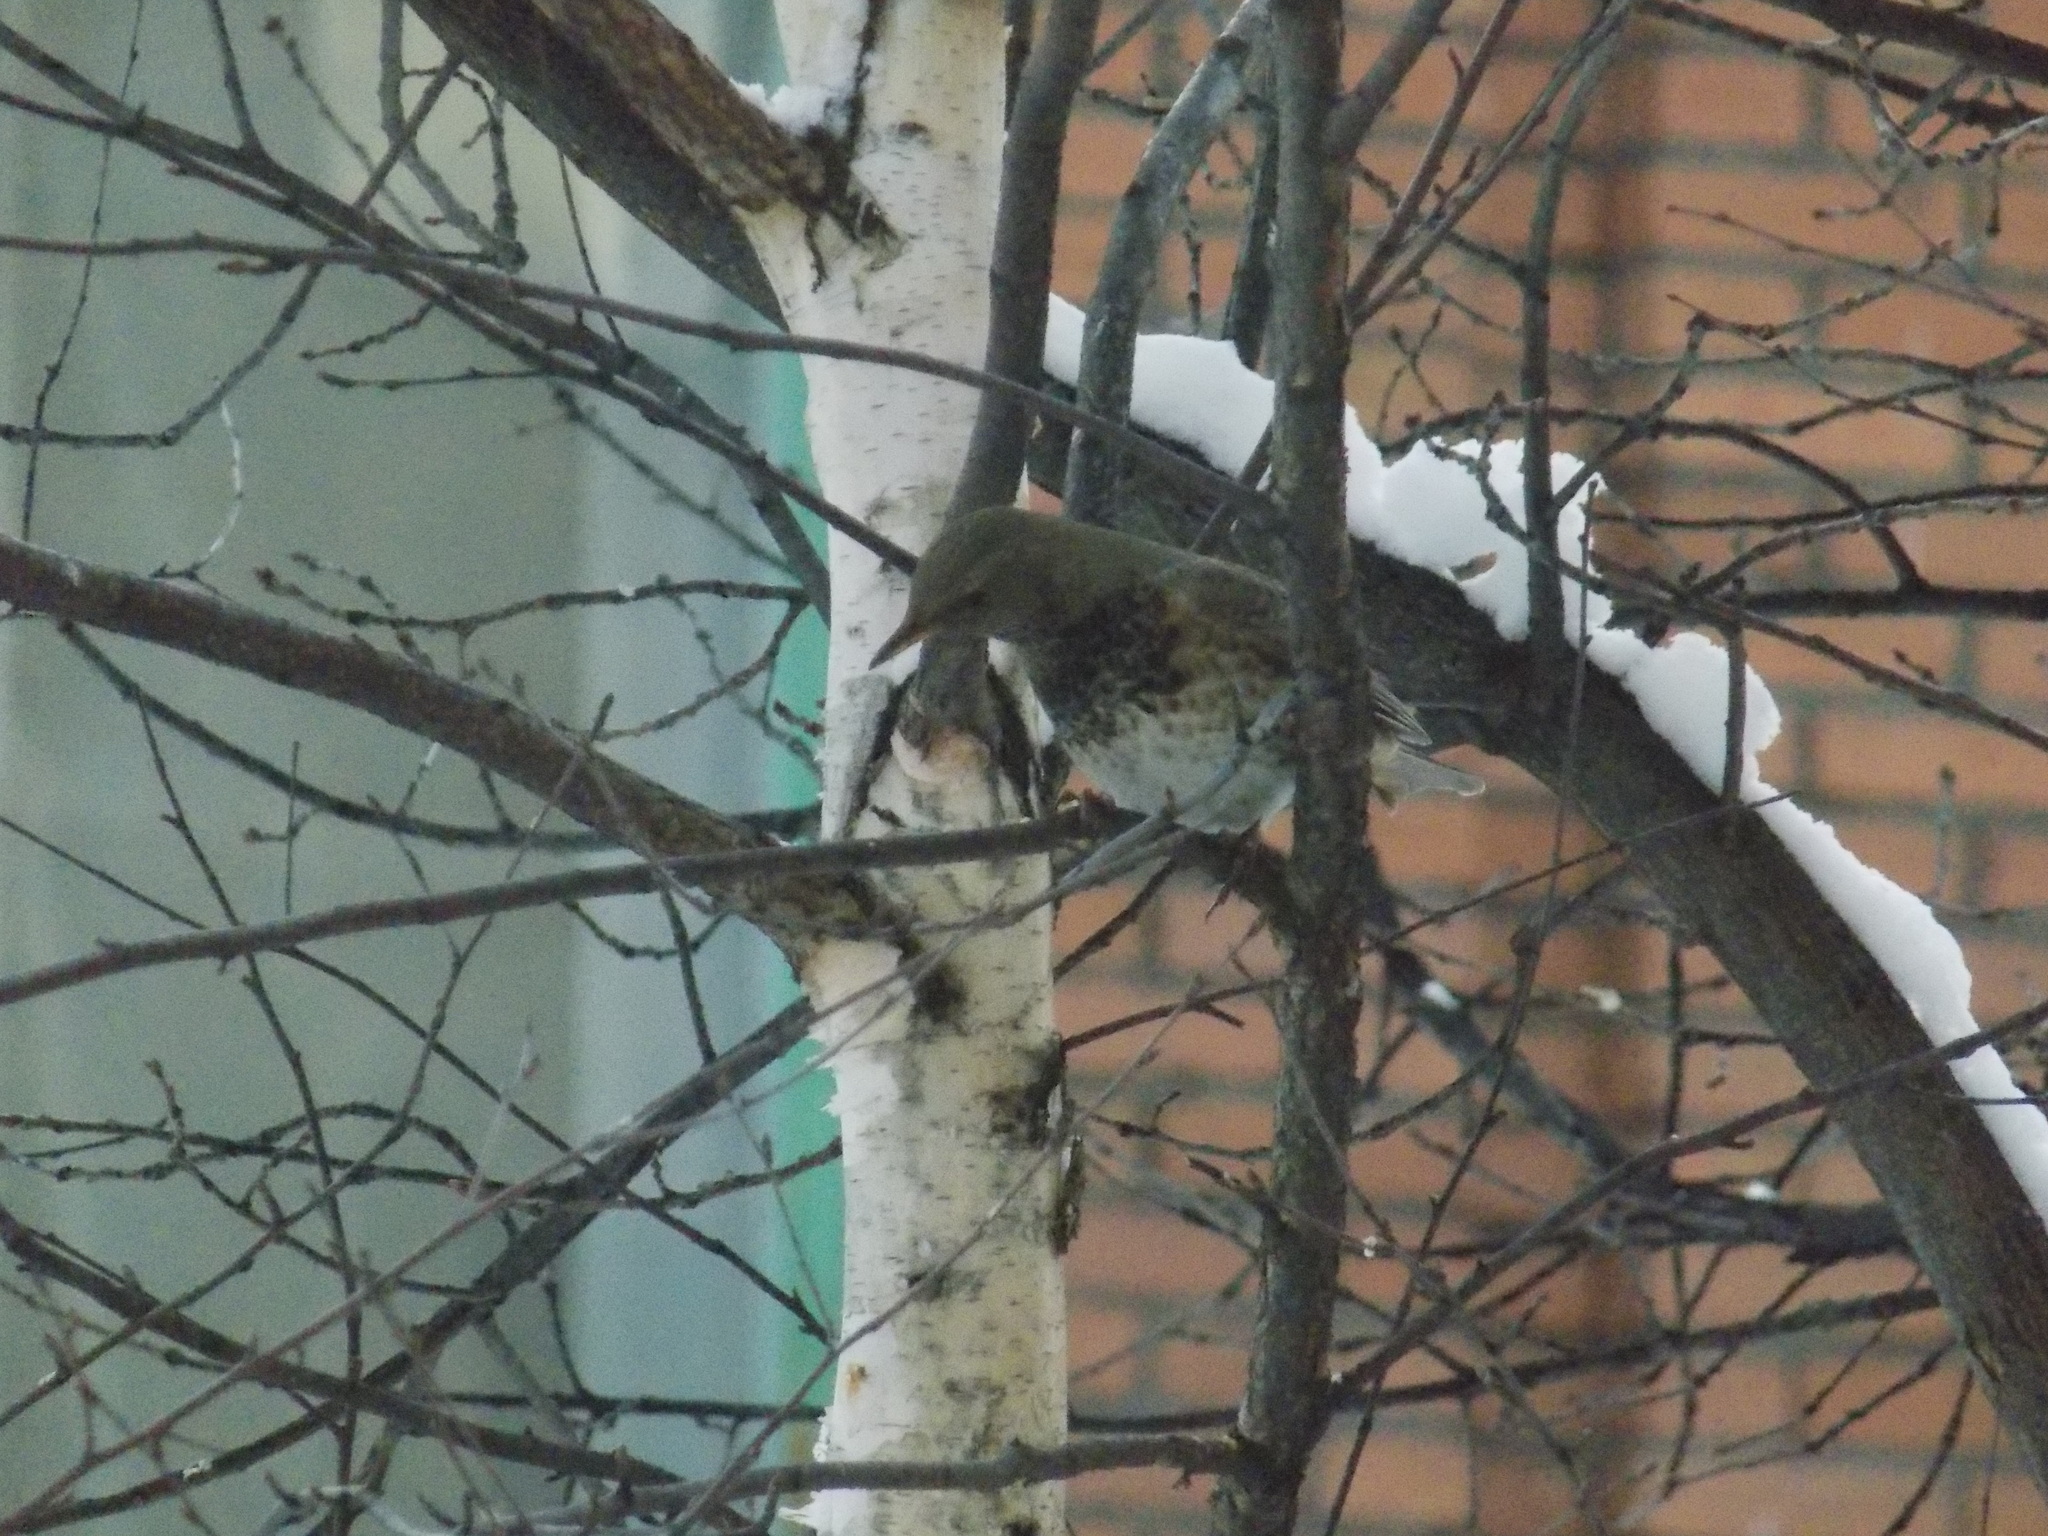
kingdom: Animalia
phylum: Chordata
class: Aves
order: Passeriformes
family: Turdidae
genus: Turdus
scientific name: Turdus atrogularis
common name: Black-throated thrush
